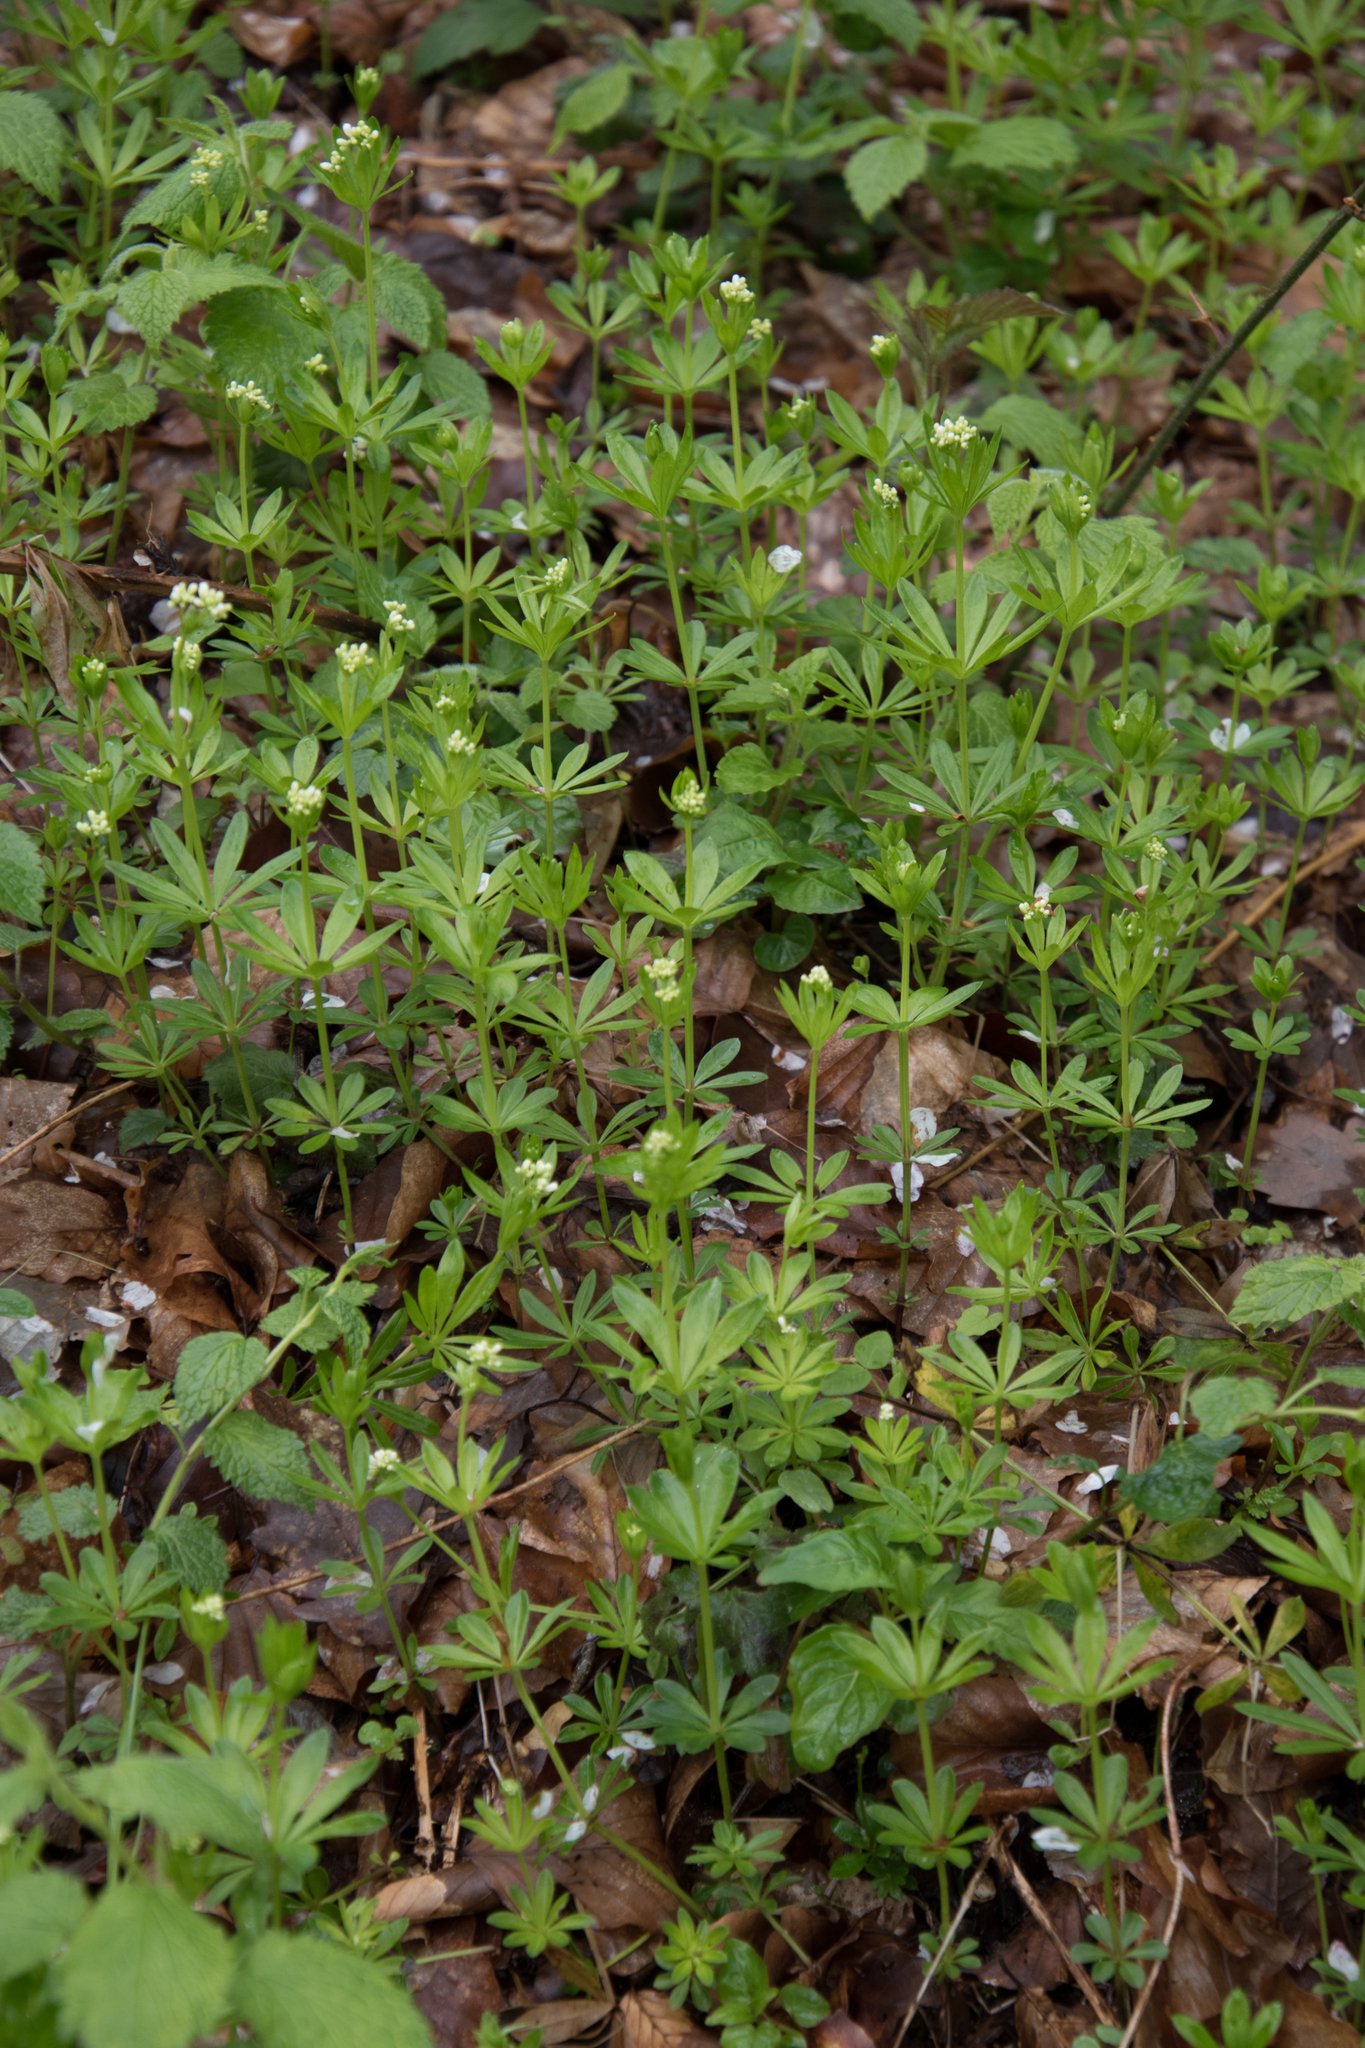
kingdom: Plantae
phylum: Tracheophyta
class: Magnoliopsida
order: Gentianales
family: Rubiaceae
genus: Galium
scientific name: Galium odoratum
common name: Sweet woodruff
